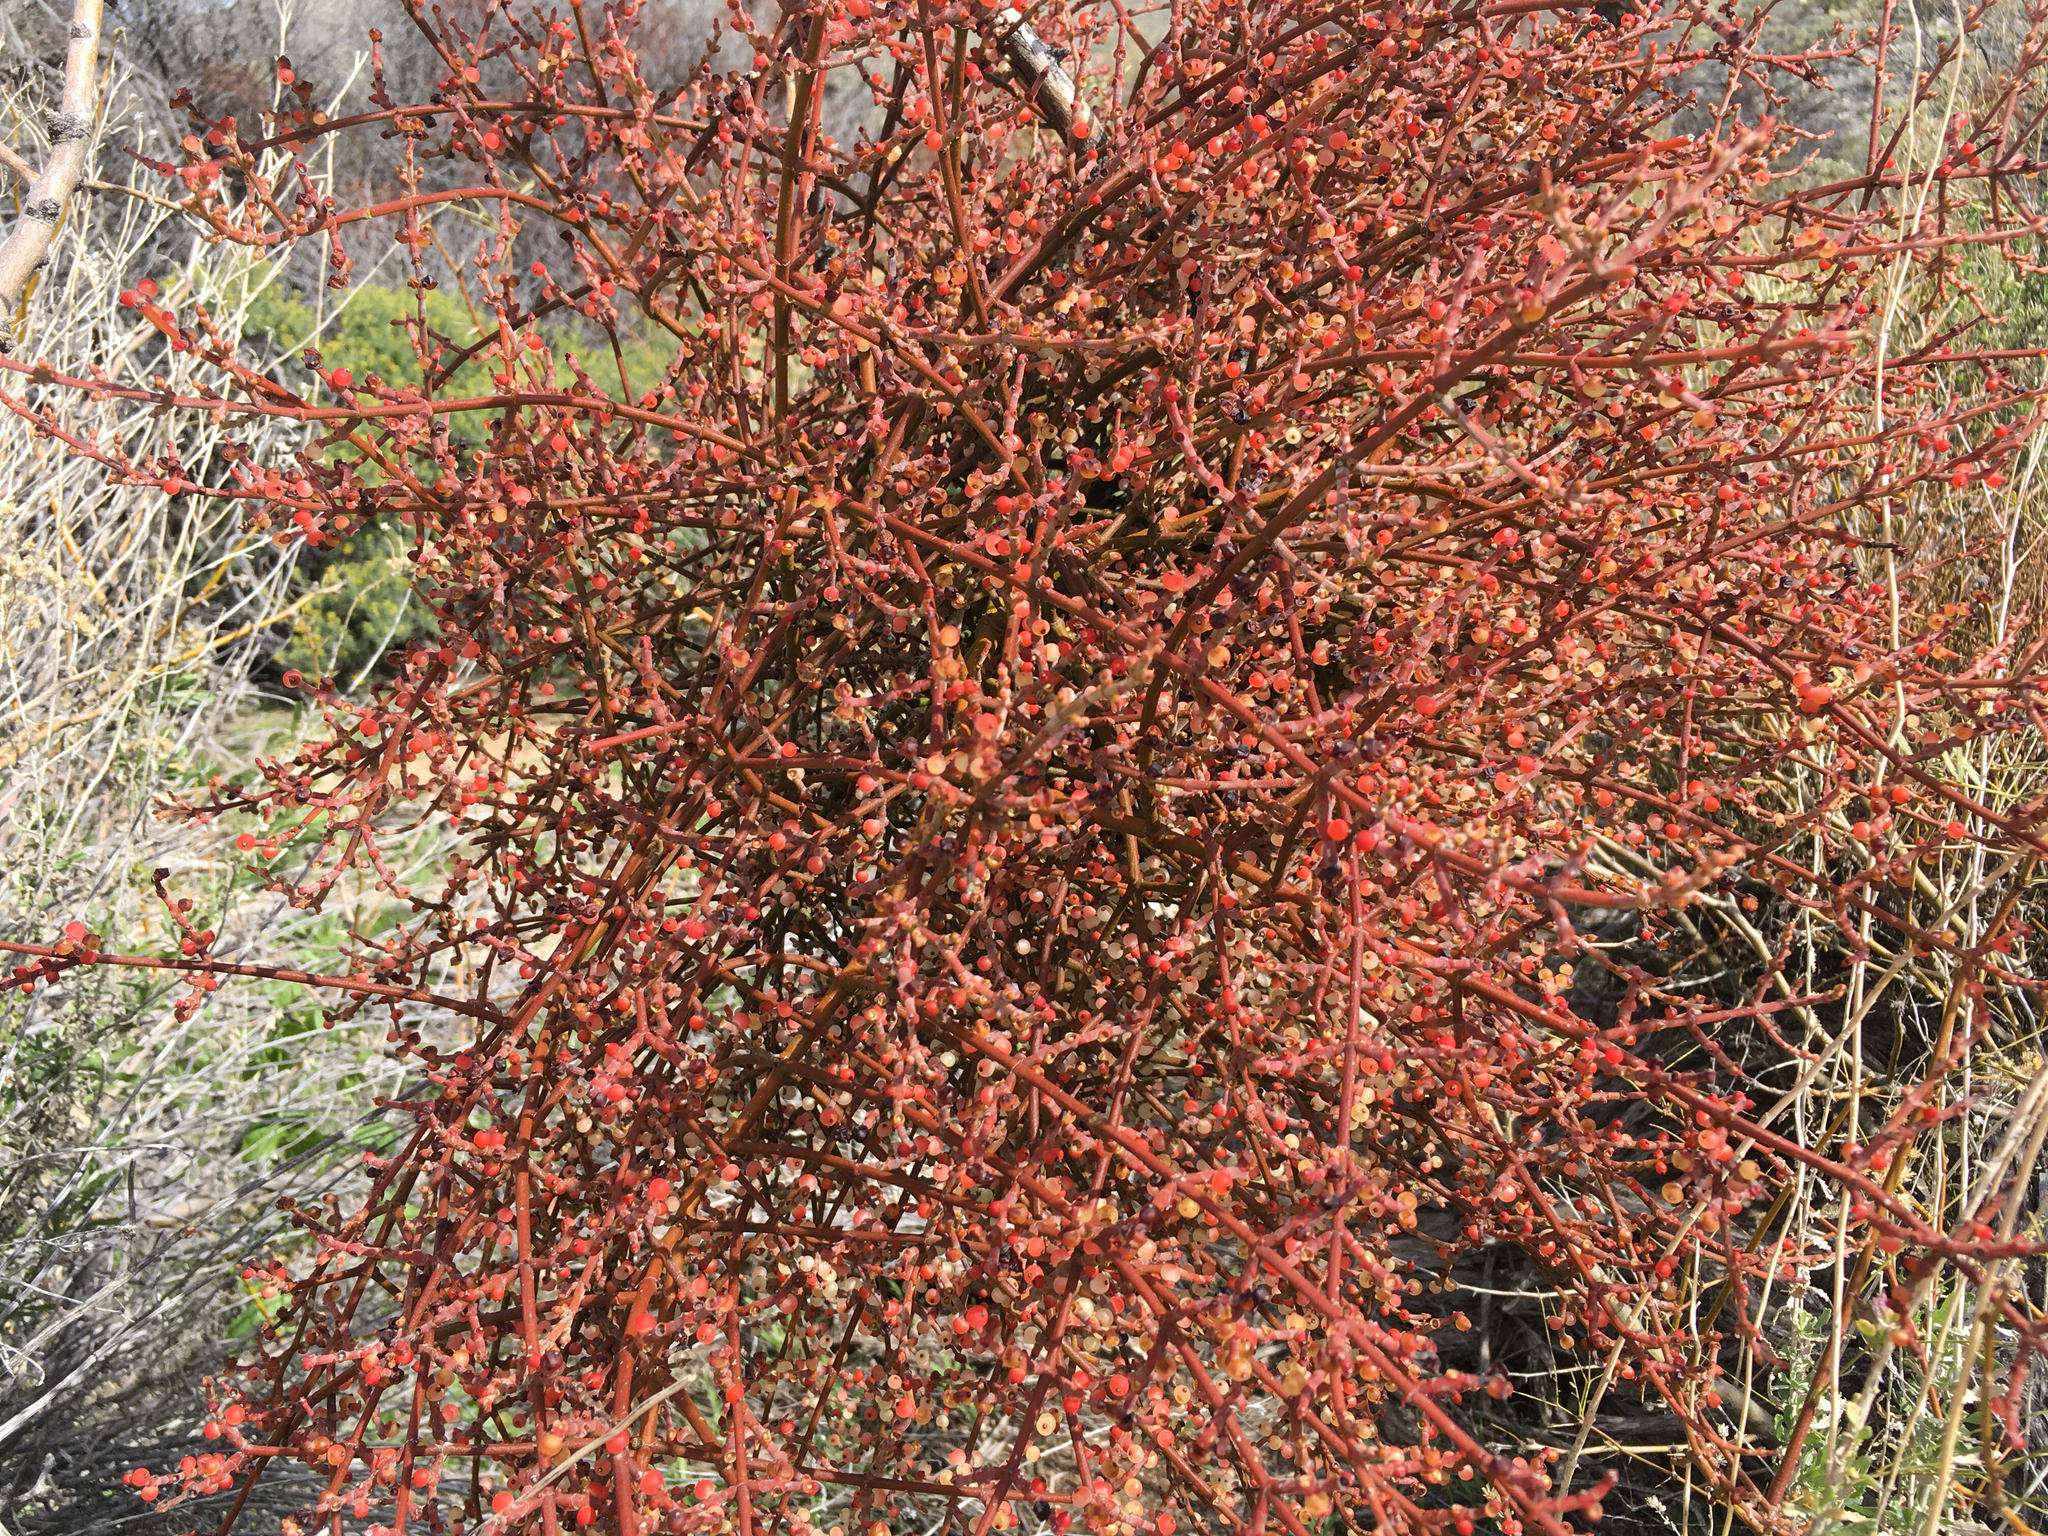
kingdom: Plantae
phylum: Tracheophyta
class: Magnoliopsida
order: Santalales
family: Viscaceae
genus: Phoradendron
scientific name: Phoradendron californicum
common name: Acacia mistletoe
